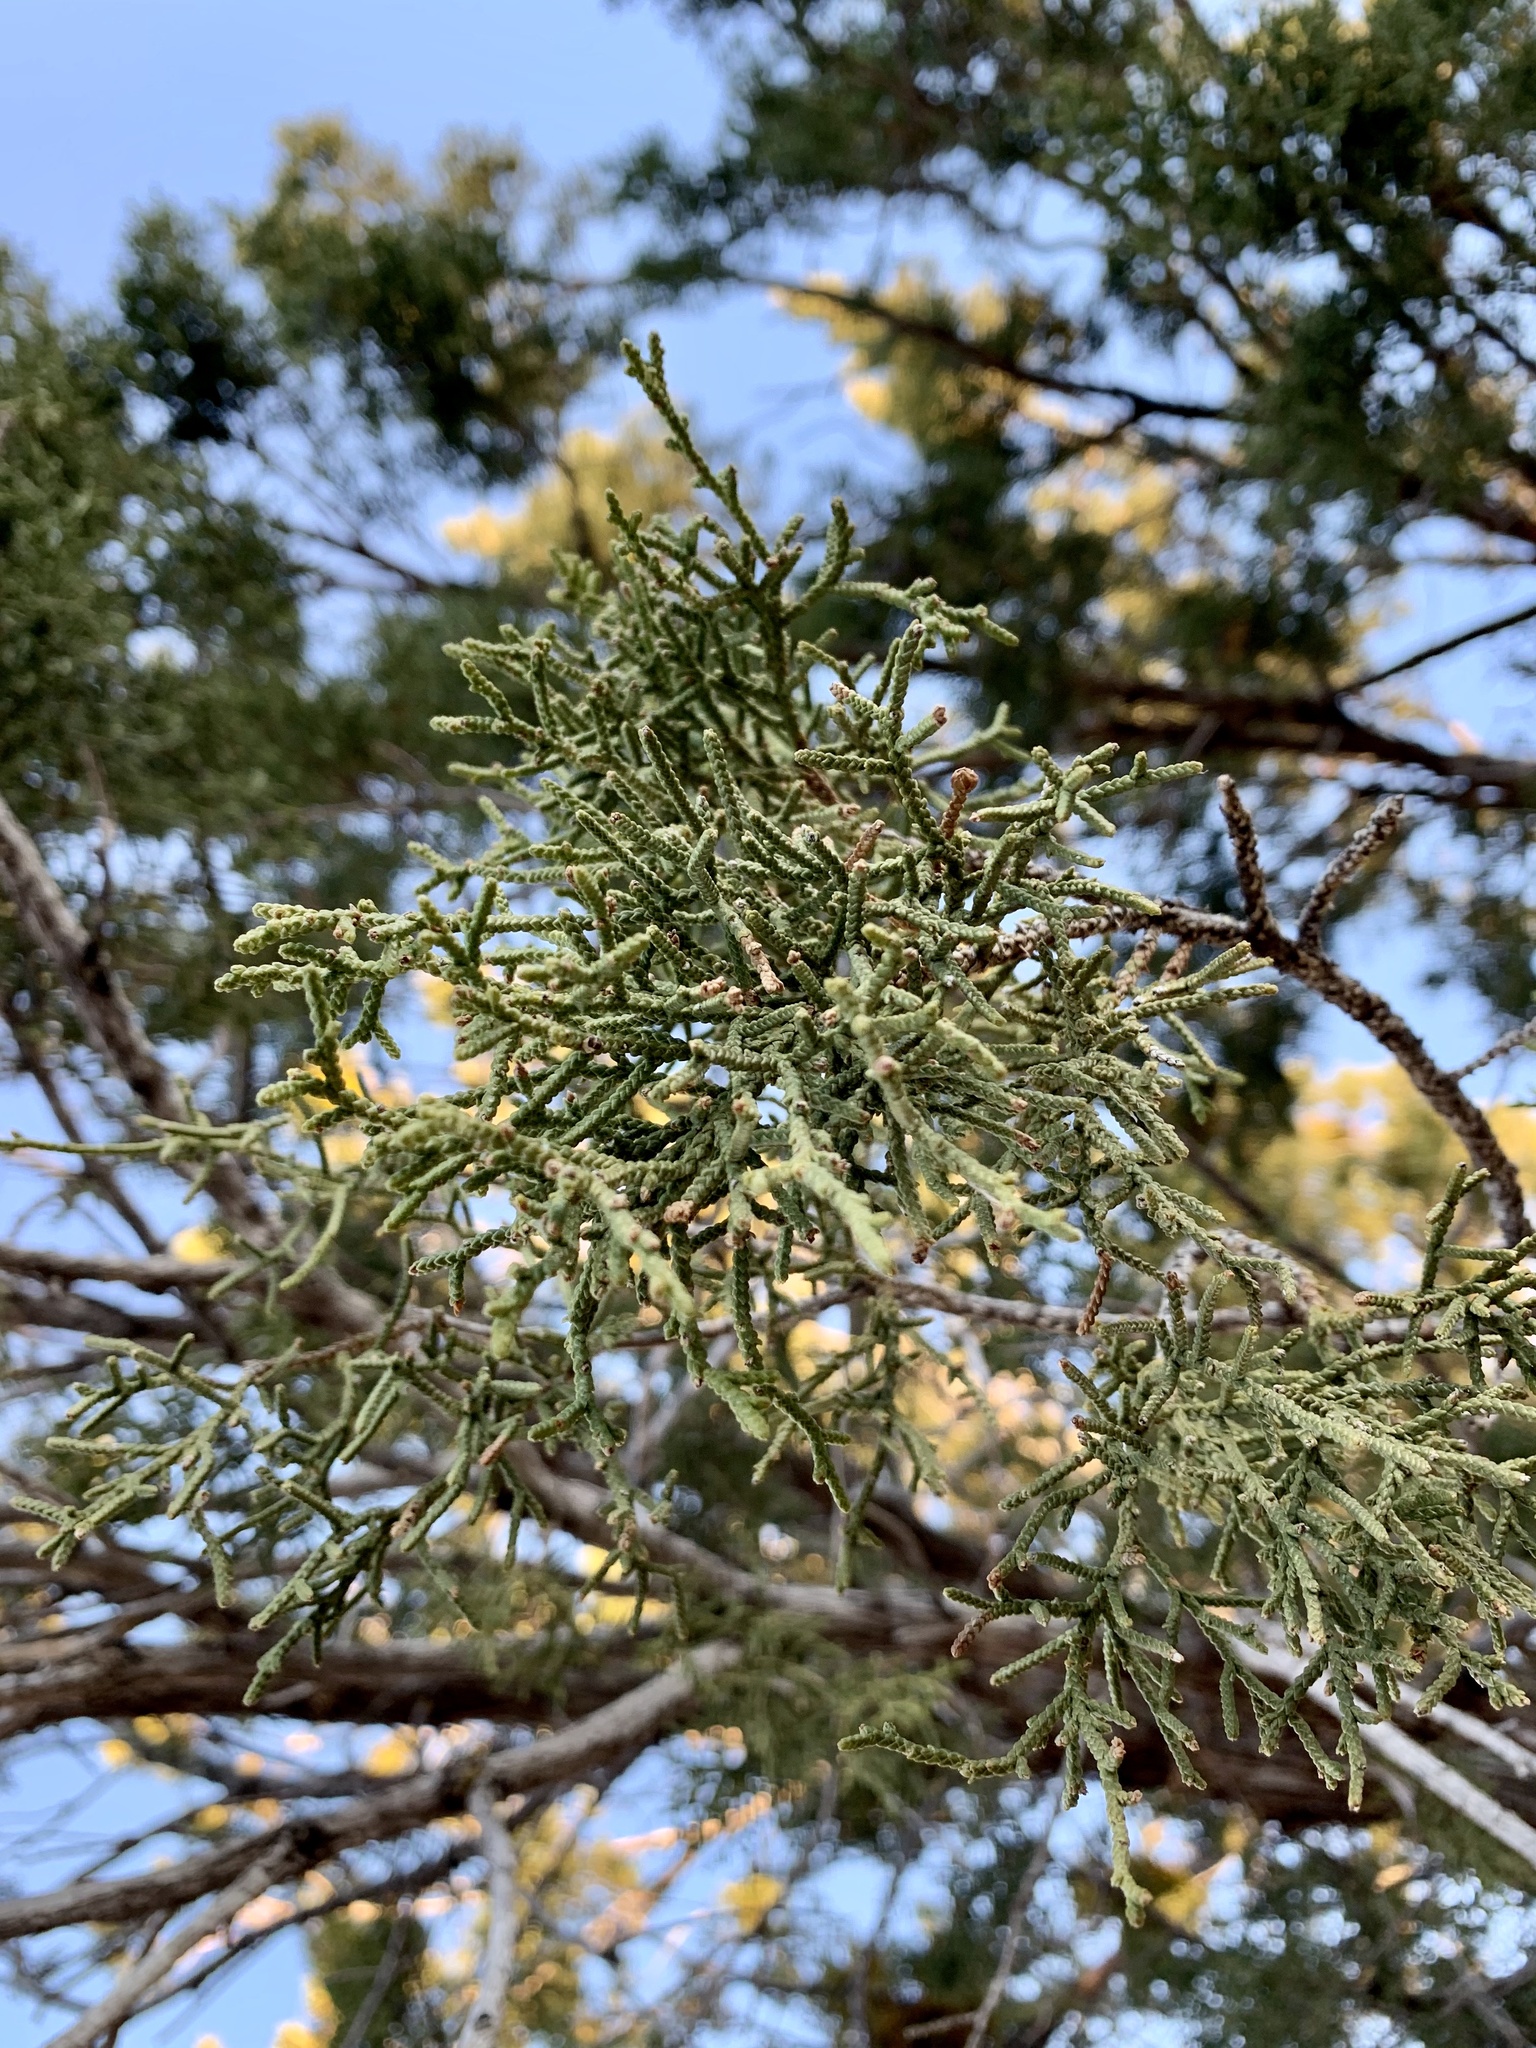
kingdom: Plantae
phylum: Tracheophyta
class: Pinopsida
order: Pinales
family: Cupressaceae
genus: Juniperus
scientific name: Juniperus monosperma
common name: One-seed juniper
